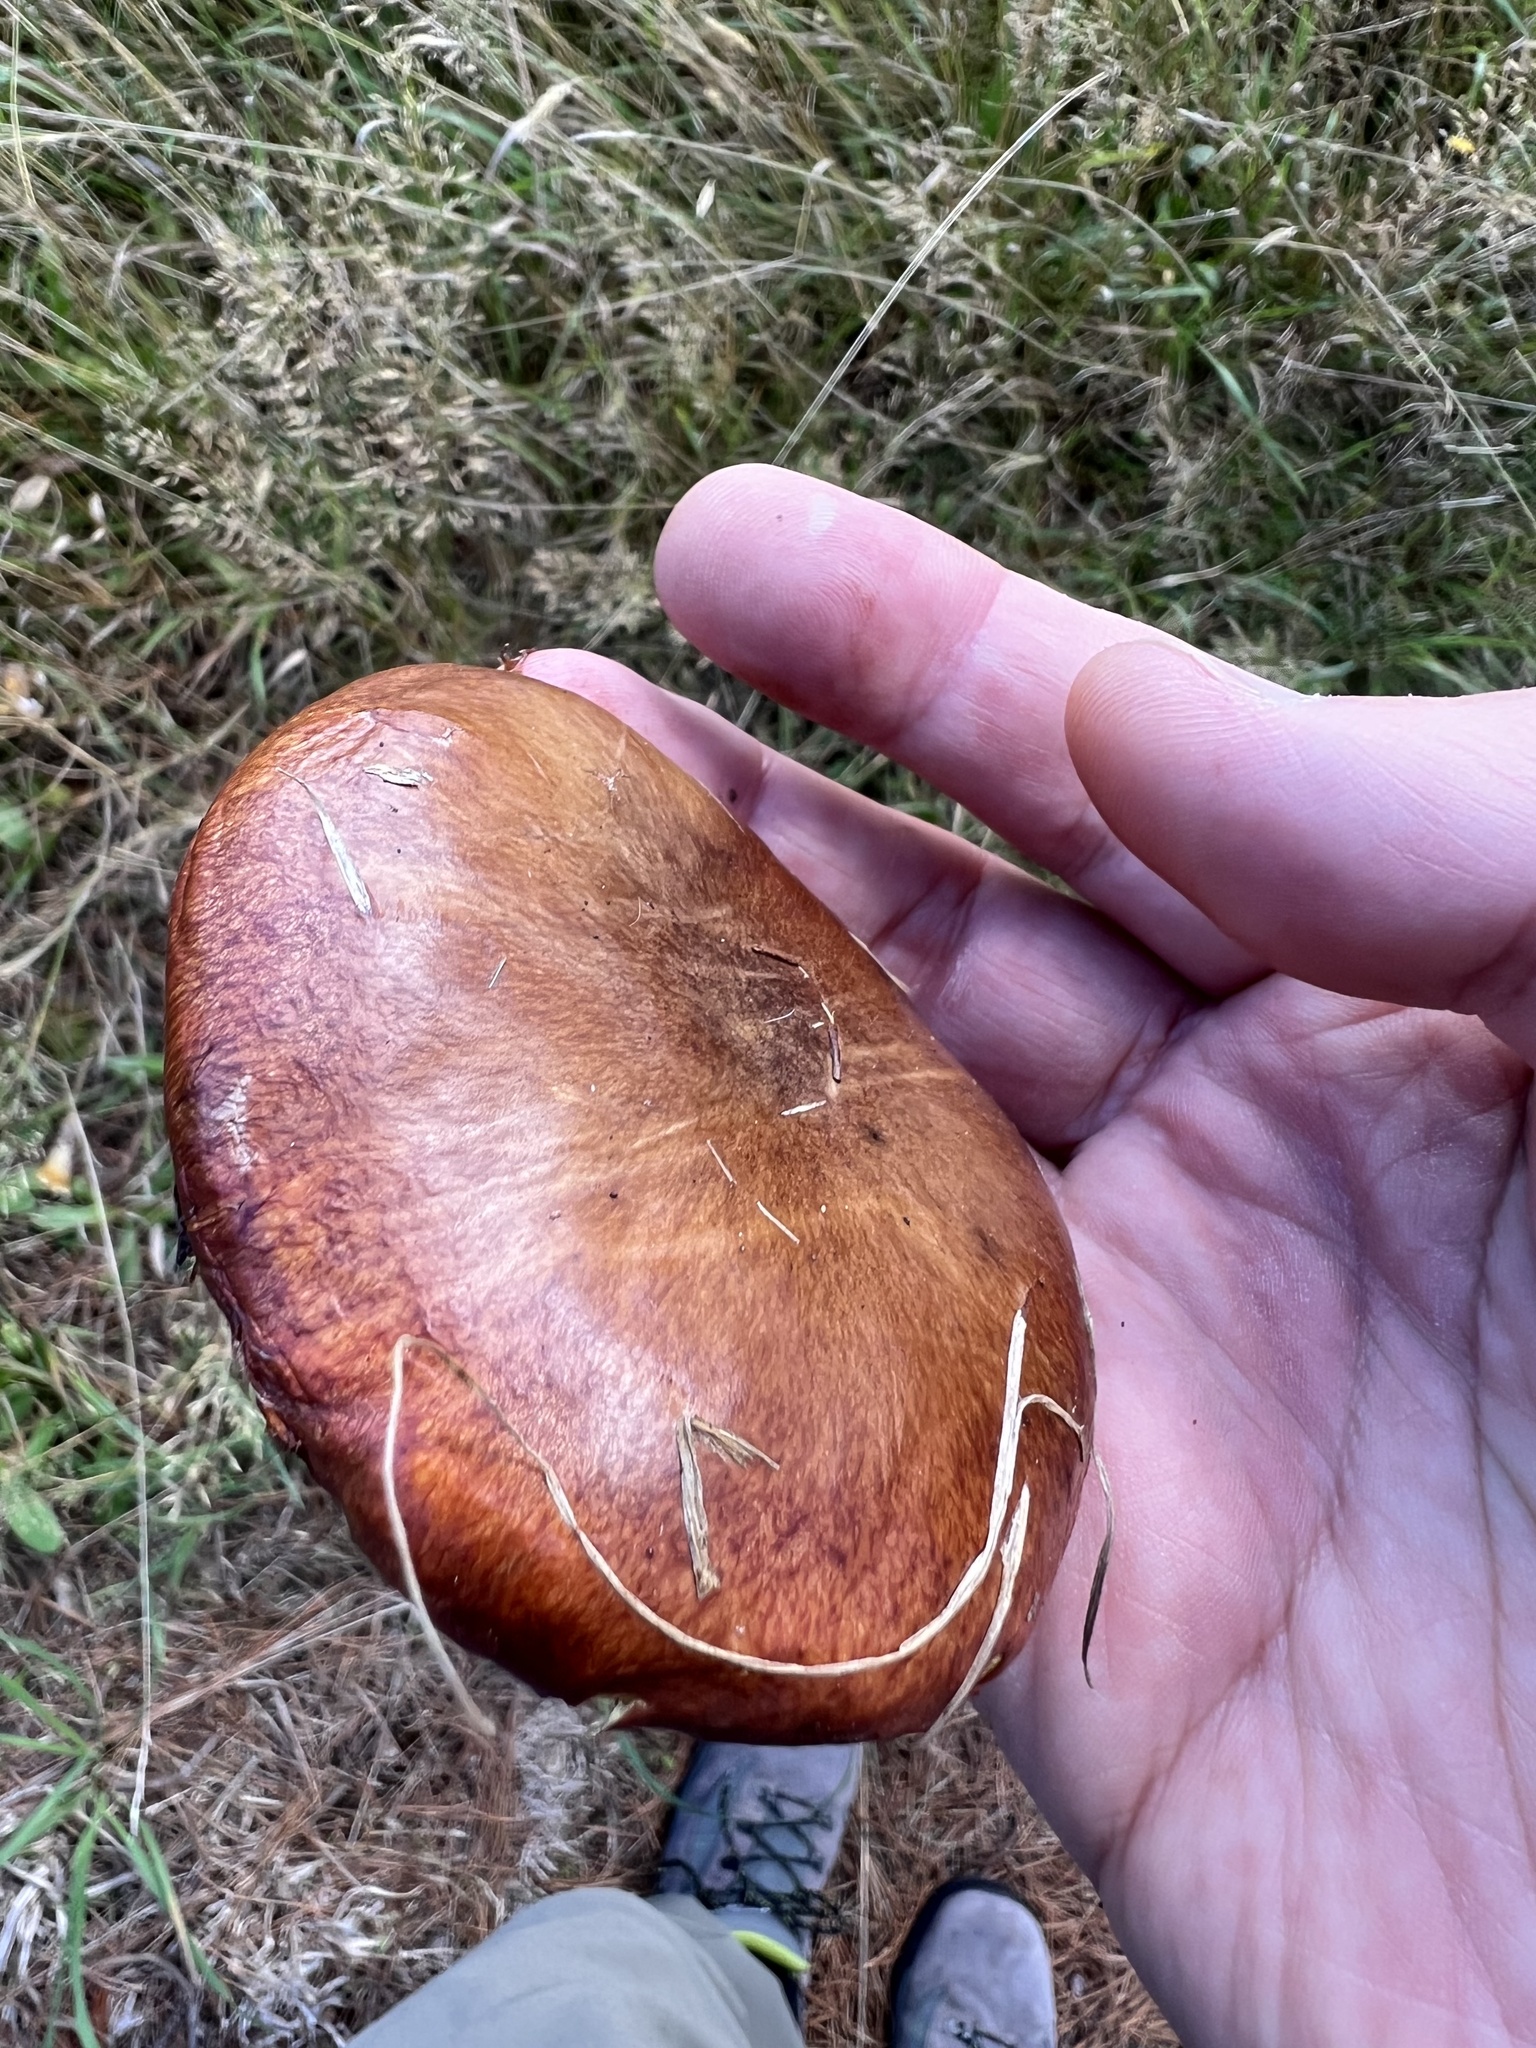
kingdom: Fungi
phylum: Basidiomycota
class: Agaricomycetes
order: Boletales
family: Suillaceae
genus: Suillus
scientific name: Suillus granulatus
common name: Weeping bolete
